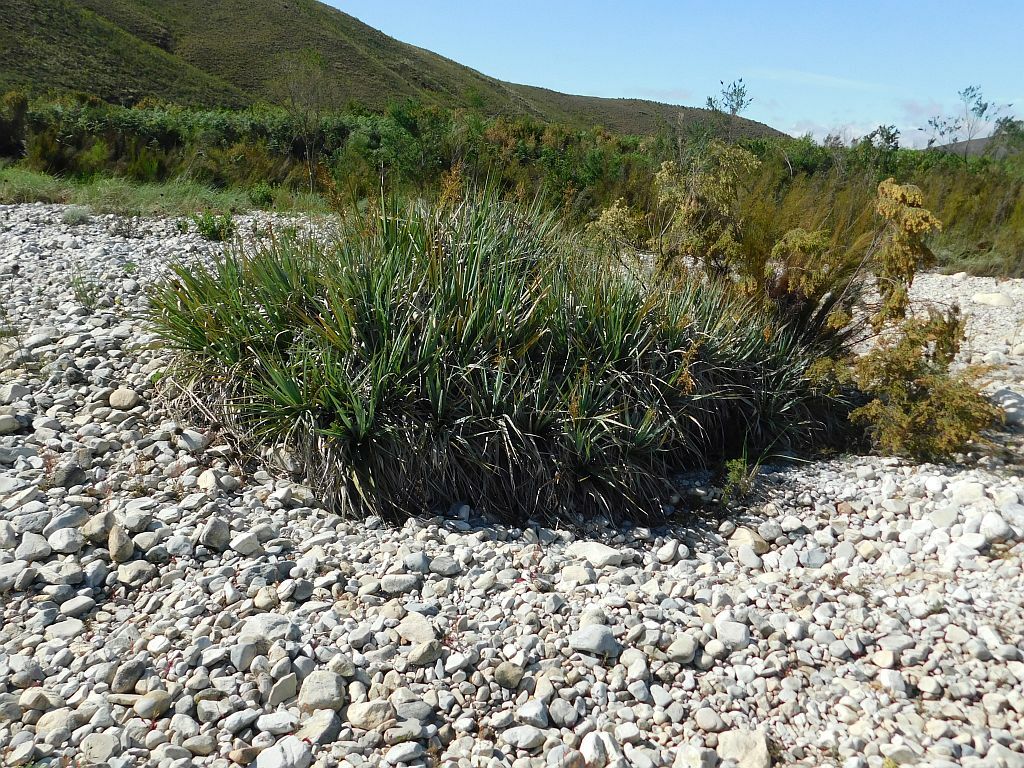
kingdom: Plantae
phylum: Tracheophyta
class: Liliopsida
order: Poales
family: Thurniaceae
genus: Prionium
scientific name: Prionium serratum
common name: Palmiet
